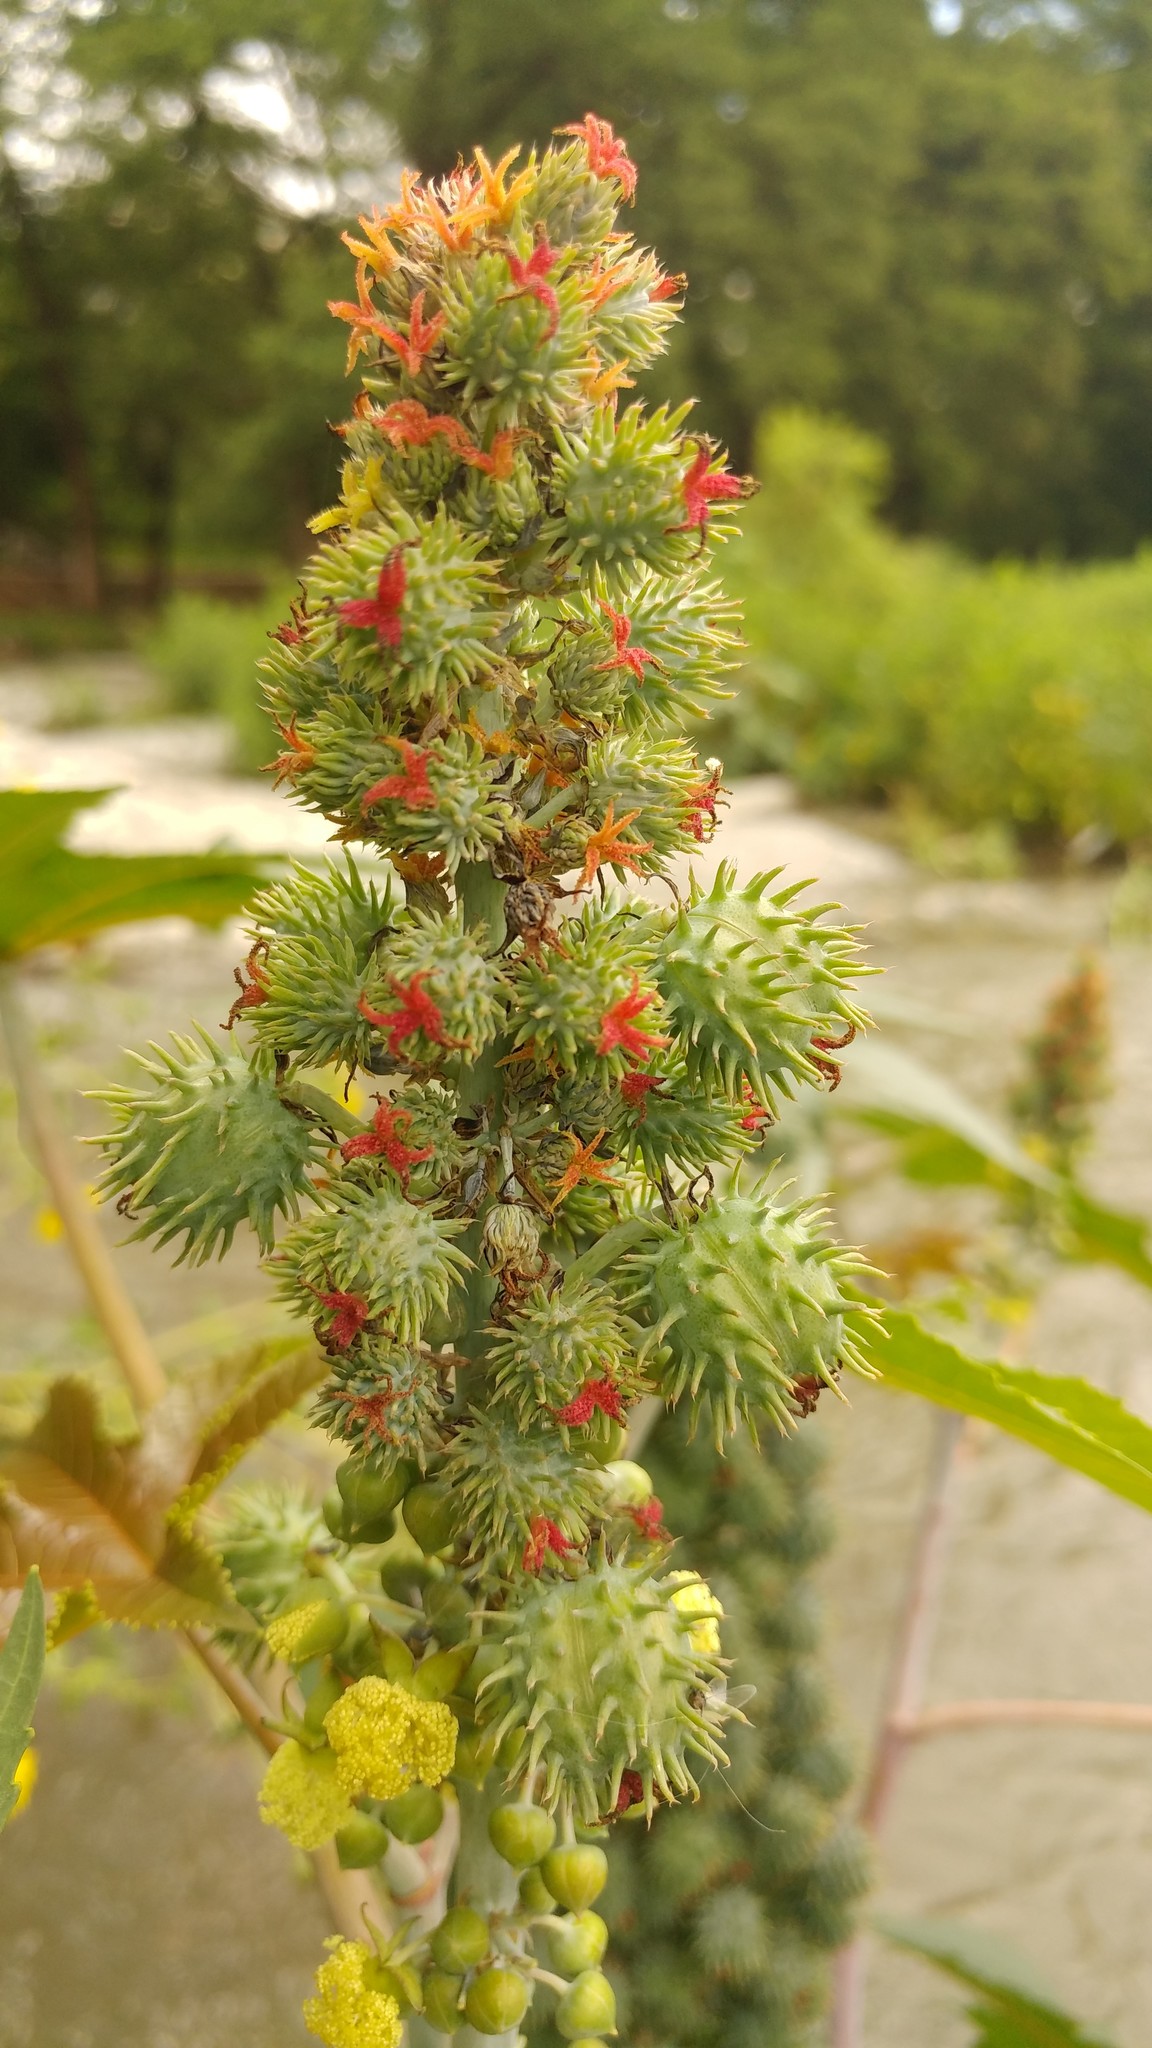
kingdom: Plantae
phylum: Tracheophyta
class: Magnoliopsida
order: Malpighiales
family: Euphorbiaceae
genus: Ricinus
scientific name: Ricinus communis
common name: Castor-oil-plant
